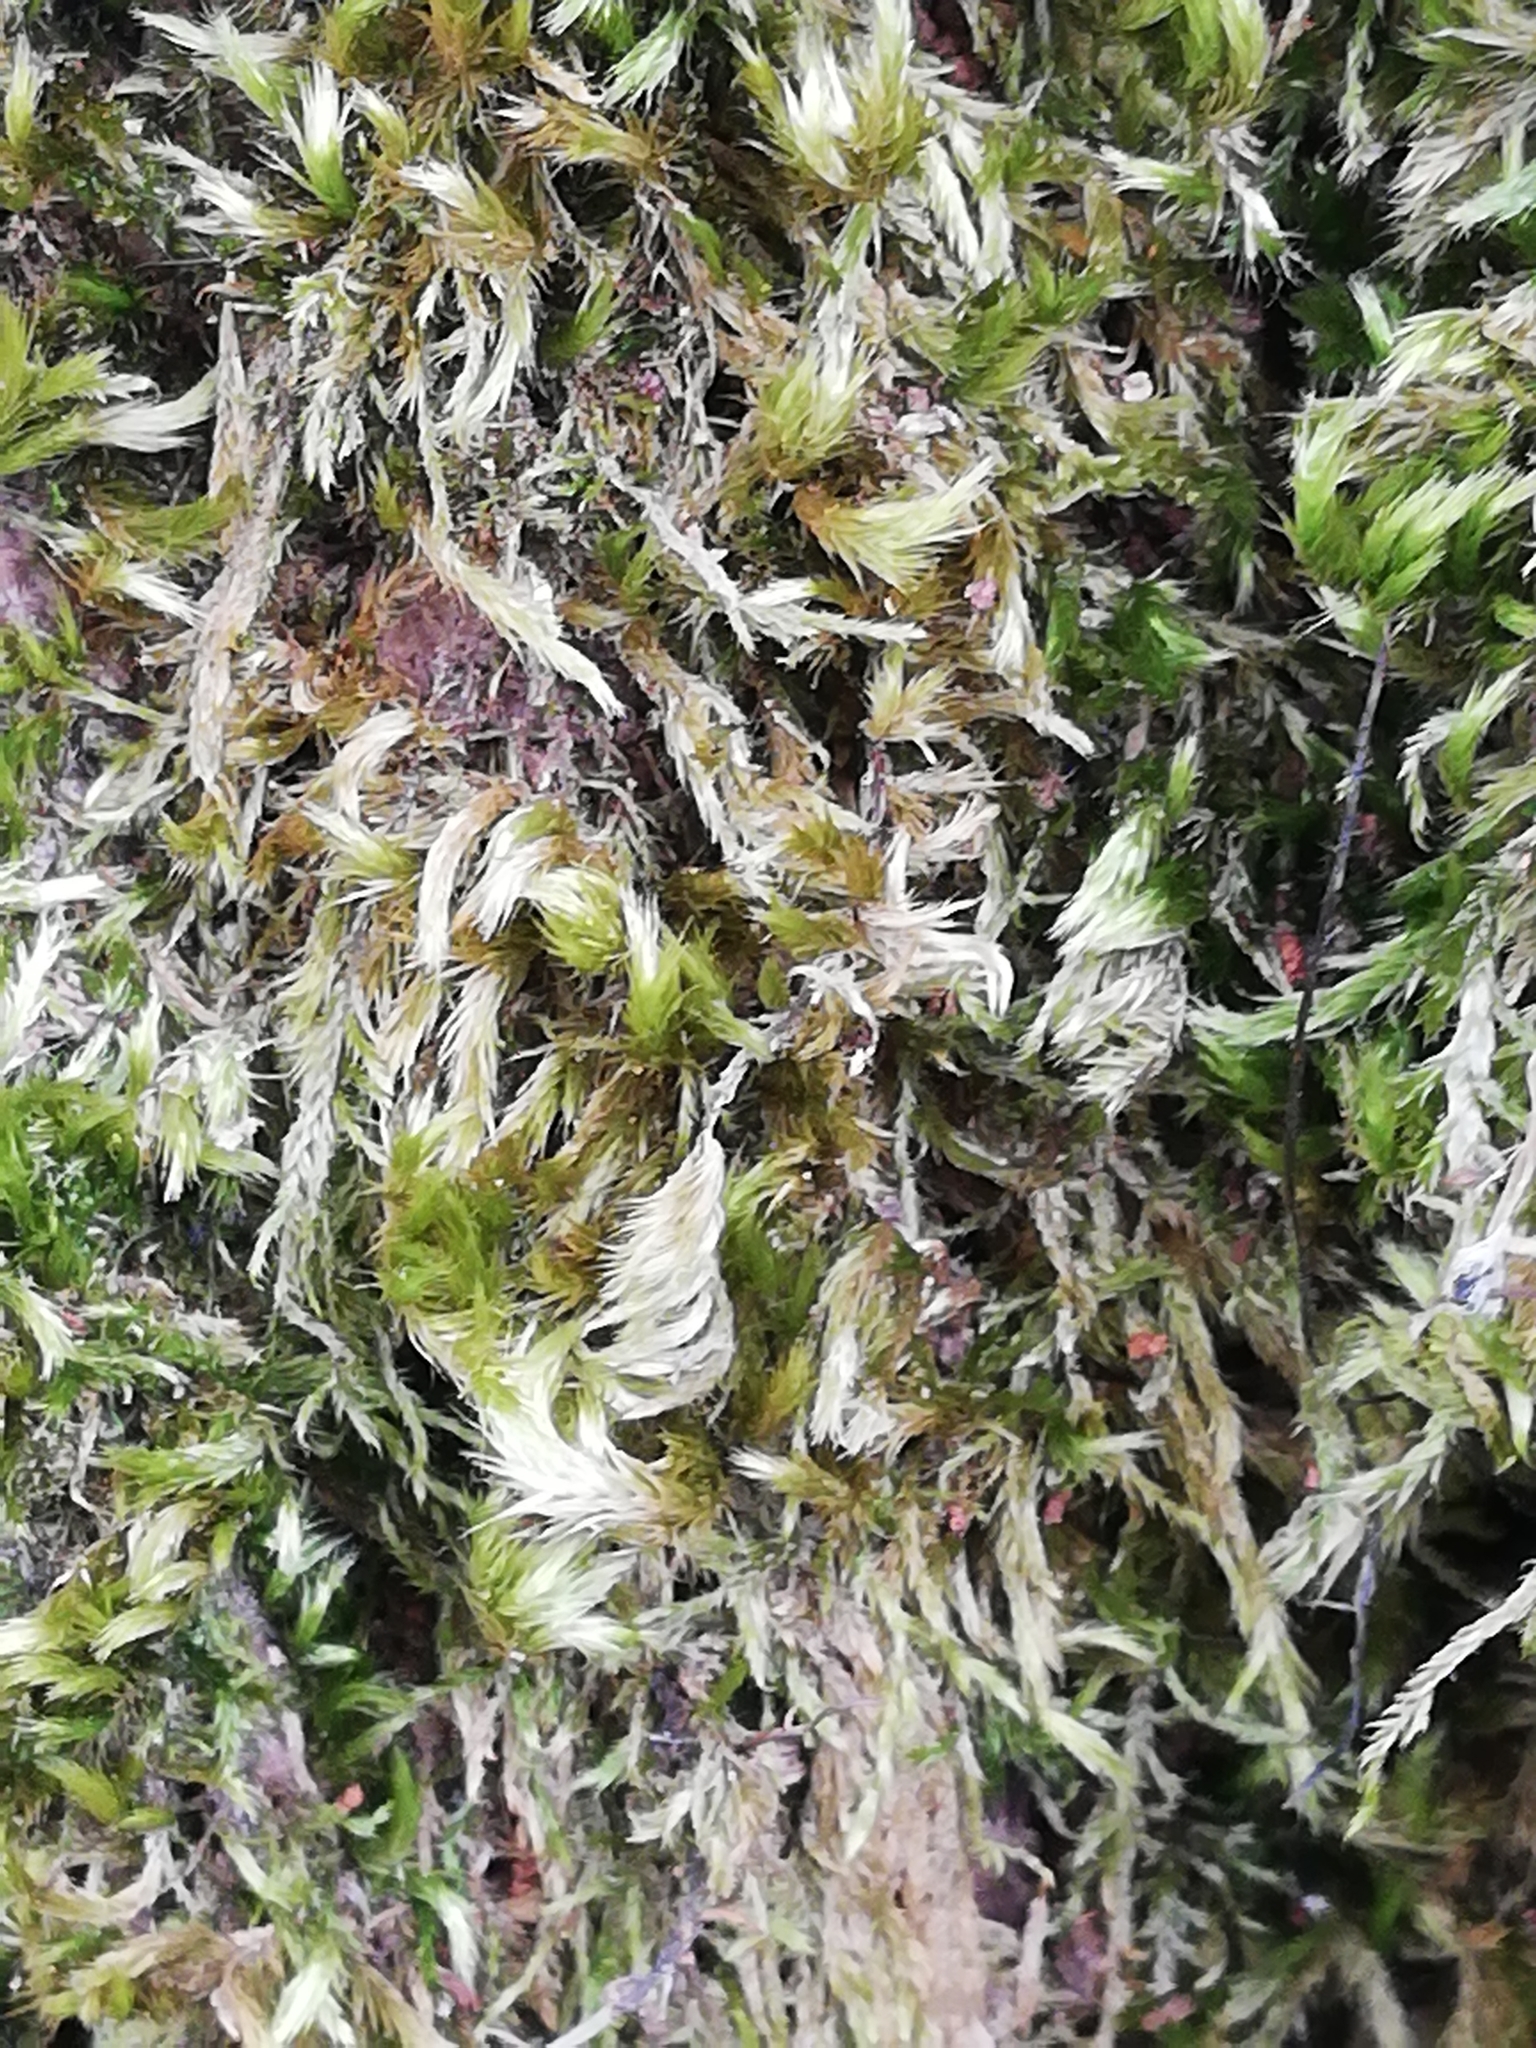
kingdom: Plantae
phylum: Bryophyta
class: Bryopsida
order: Hypnales
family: Brachytheciaceae
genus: Homalothecium
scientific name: Homalothecium sericeum
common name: Silky wall feather-moss
